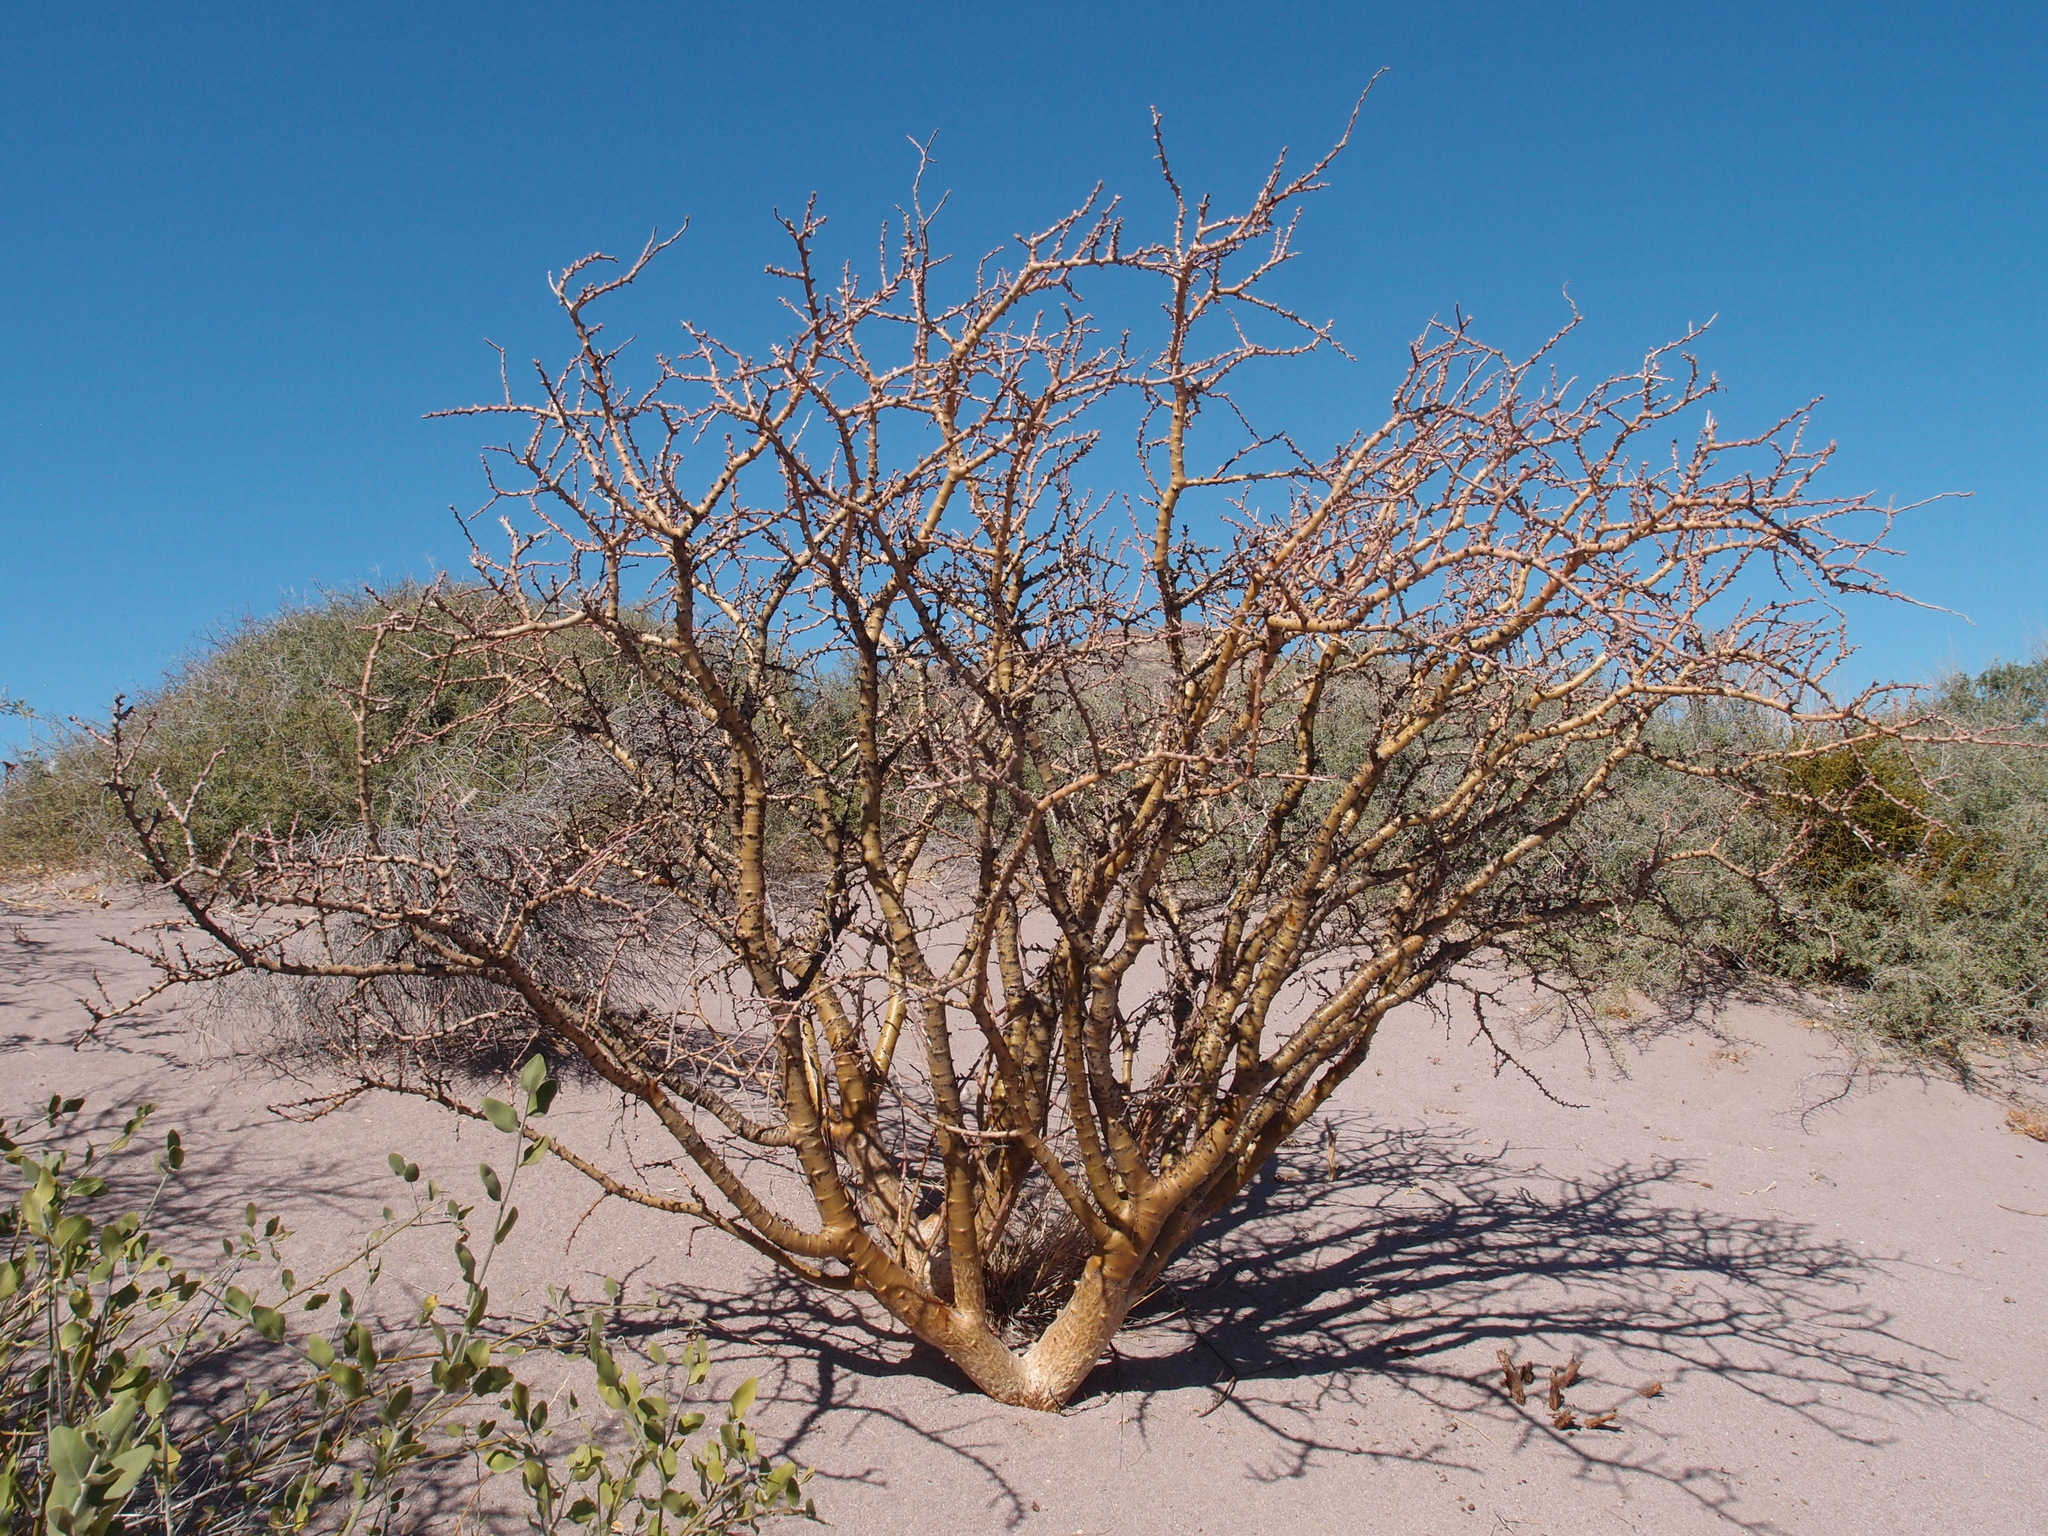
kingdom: Plantae
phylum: Tracheophyta
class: Magnoliopsida
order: Malpighiales
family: Euphorbiaceae
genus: Jatropha
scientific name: Jatropha cuneata
